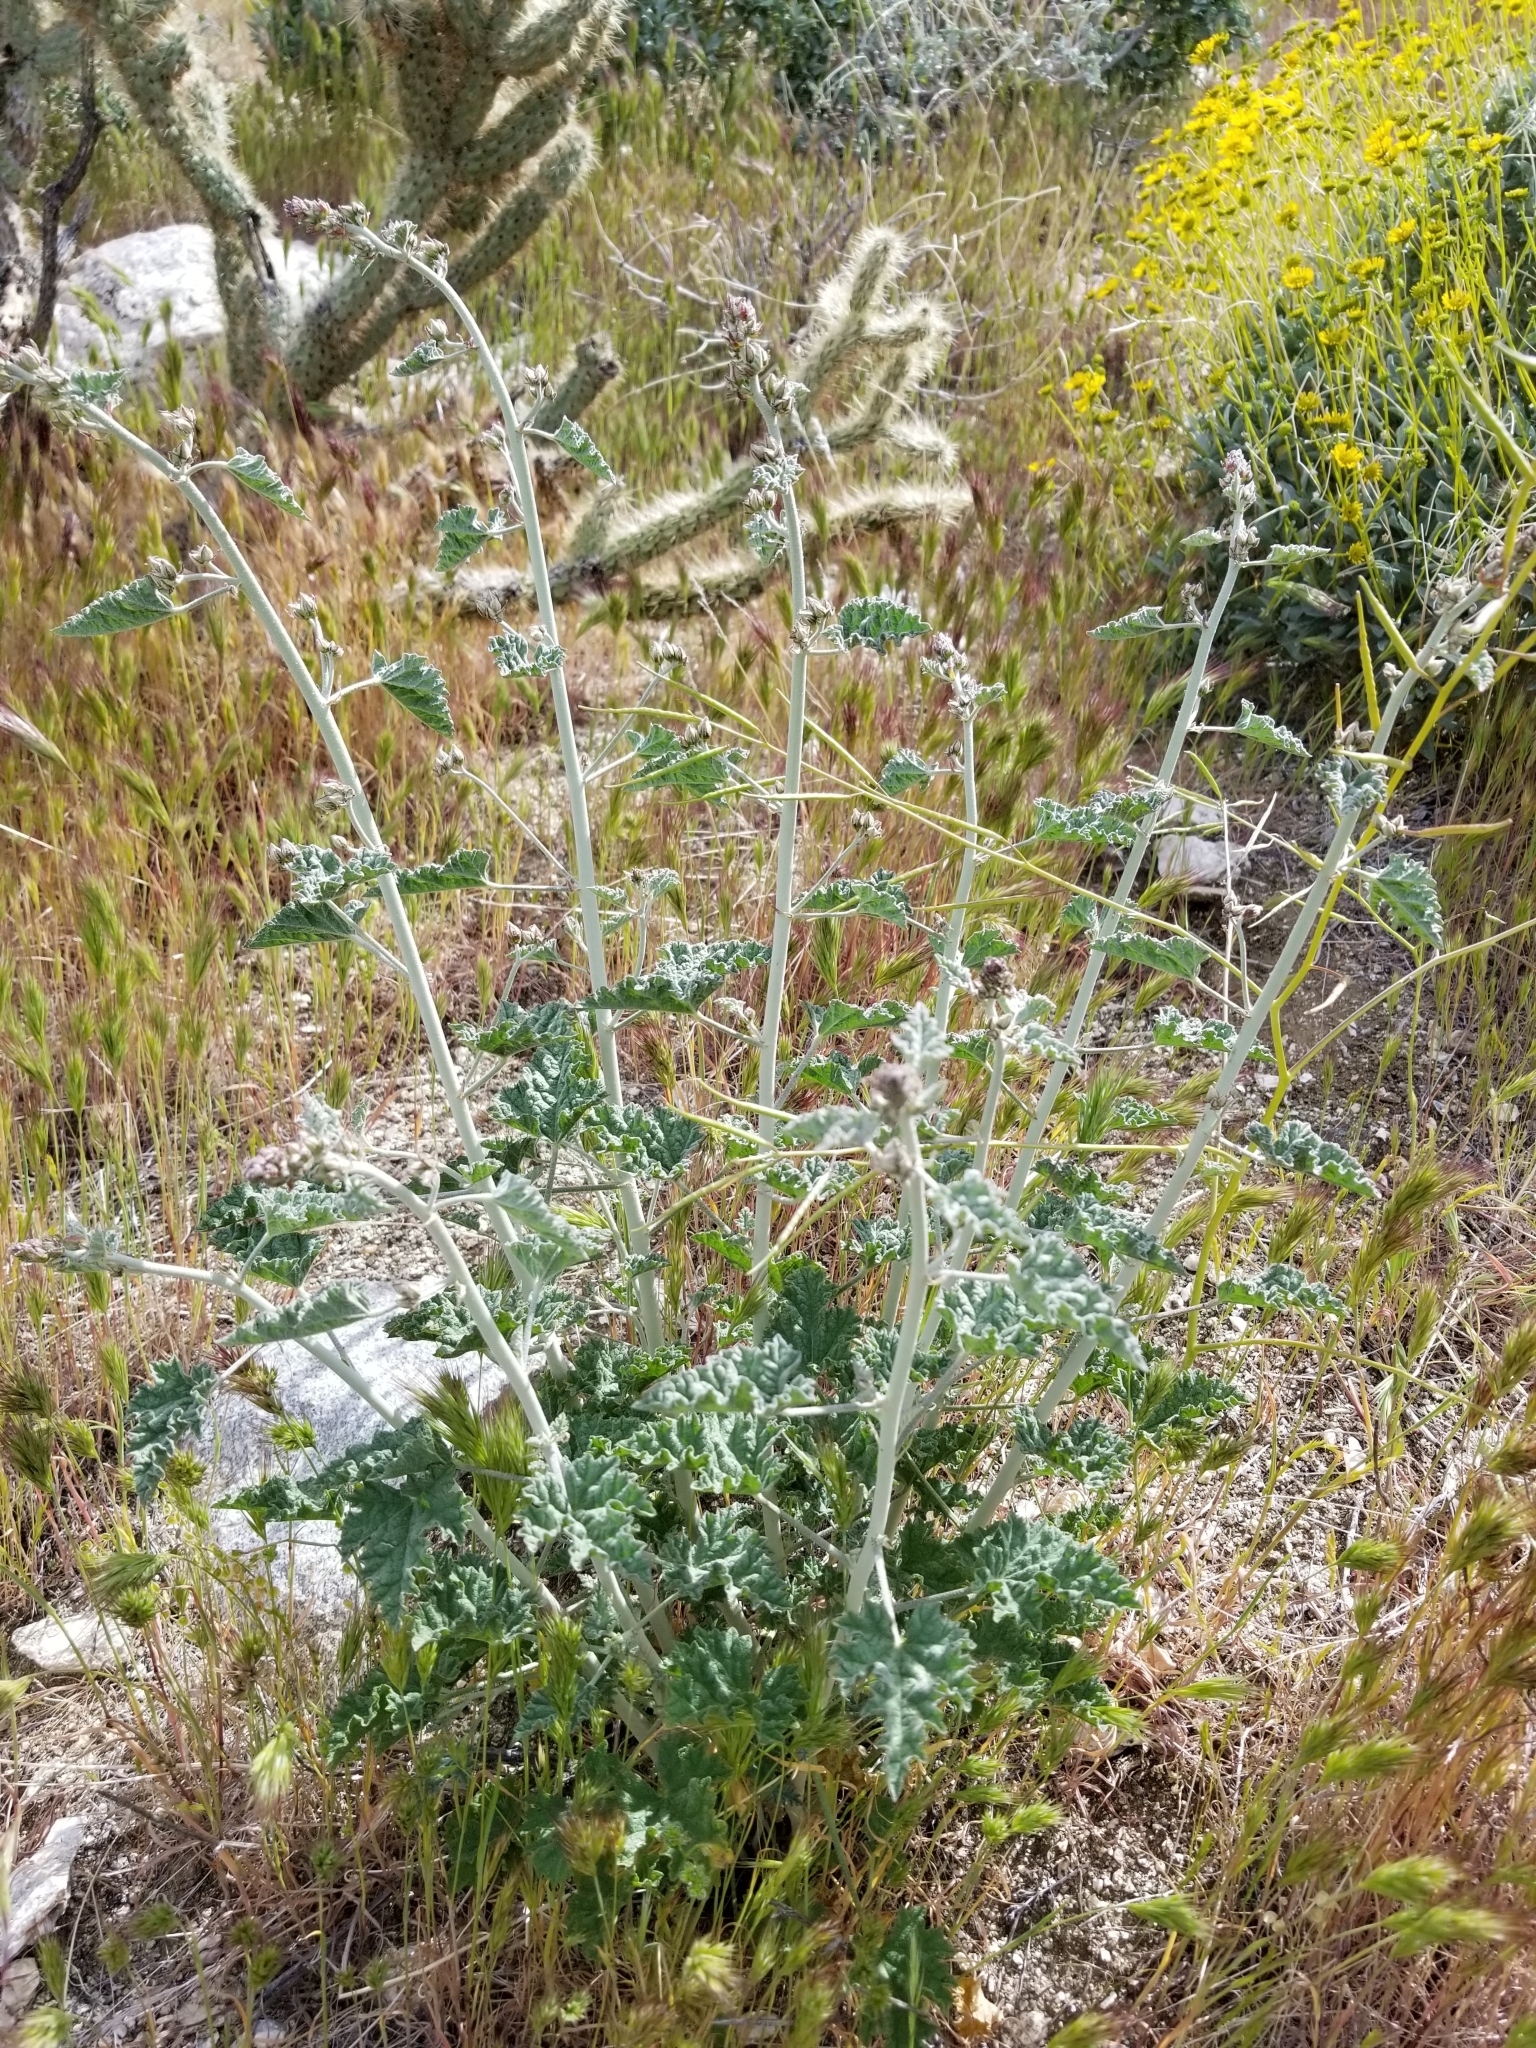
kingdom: Plantae
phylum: Tracheophyta
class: Magnoliopsida
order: Malvales
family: Malvaceae
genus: Sphaeralcea
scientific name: Sphaeralcea ambigua
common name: Apricot globe-mallow
